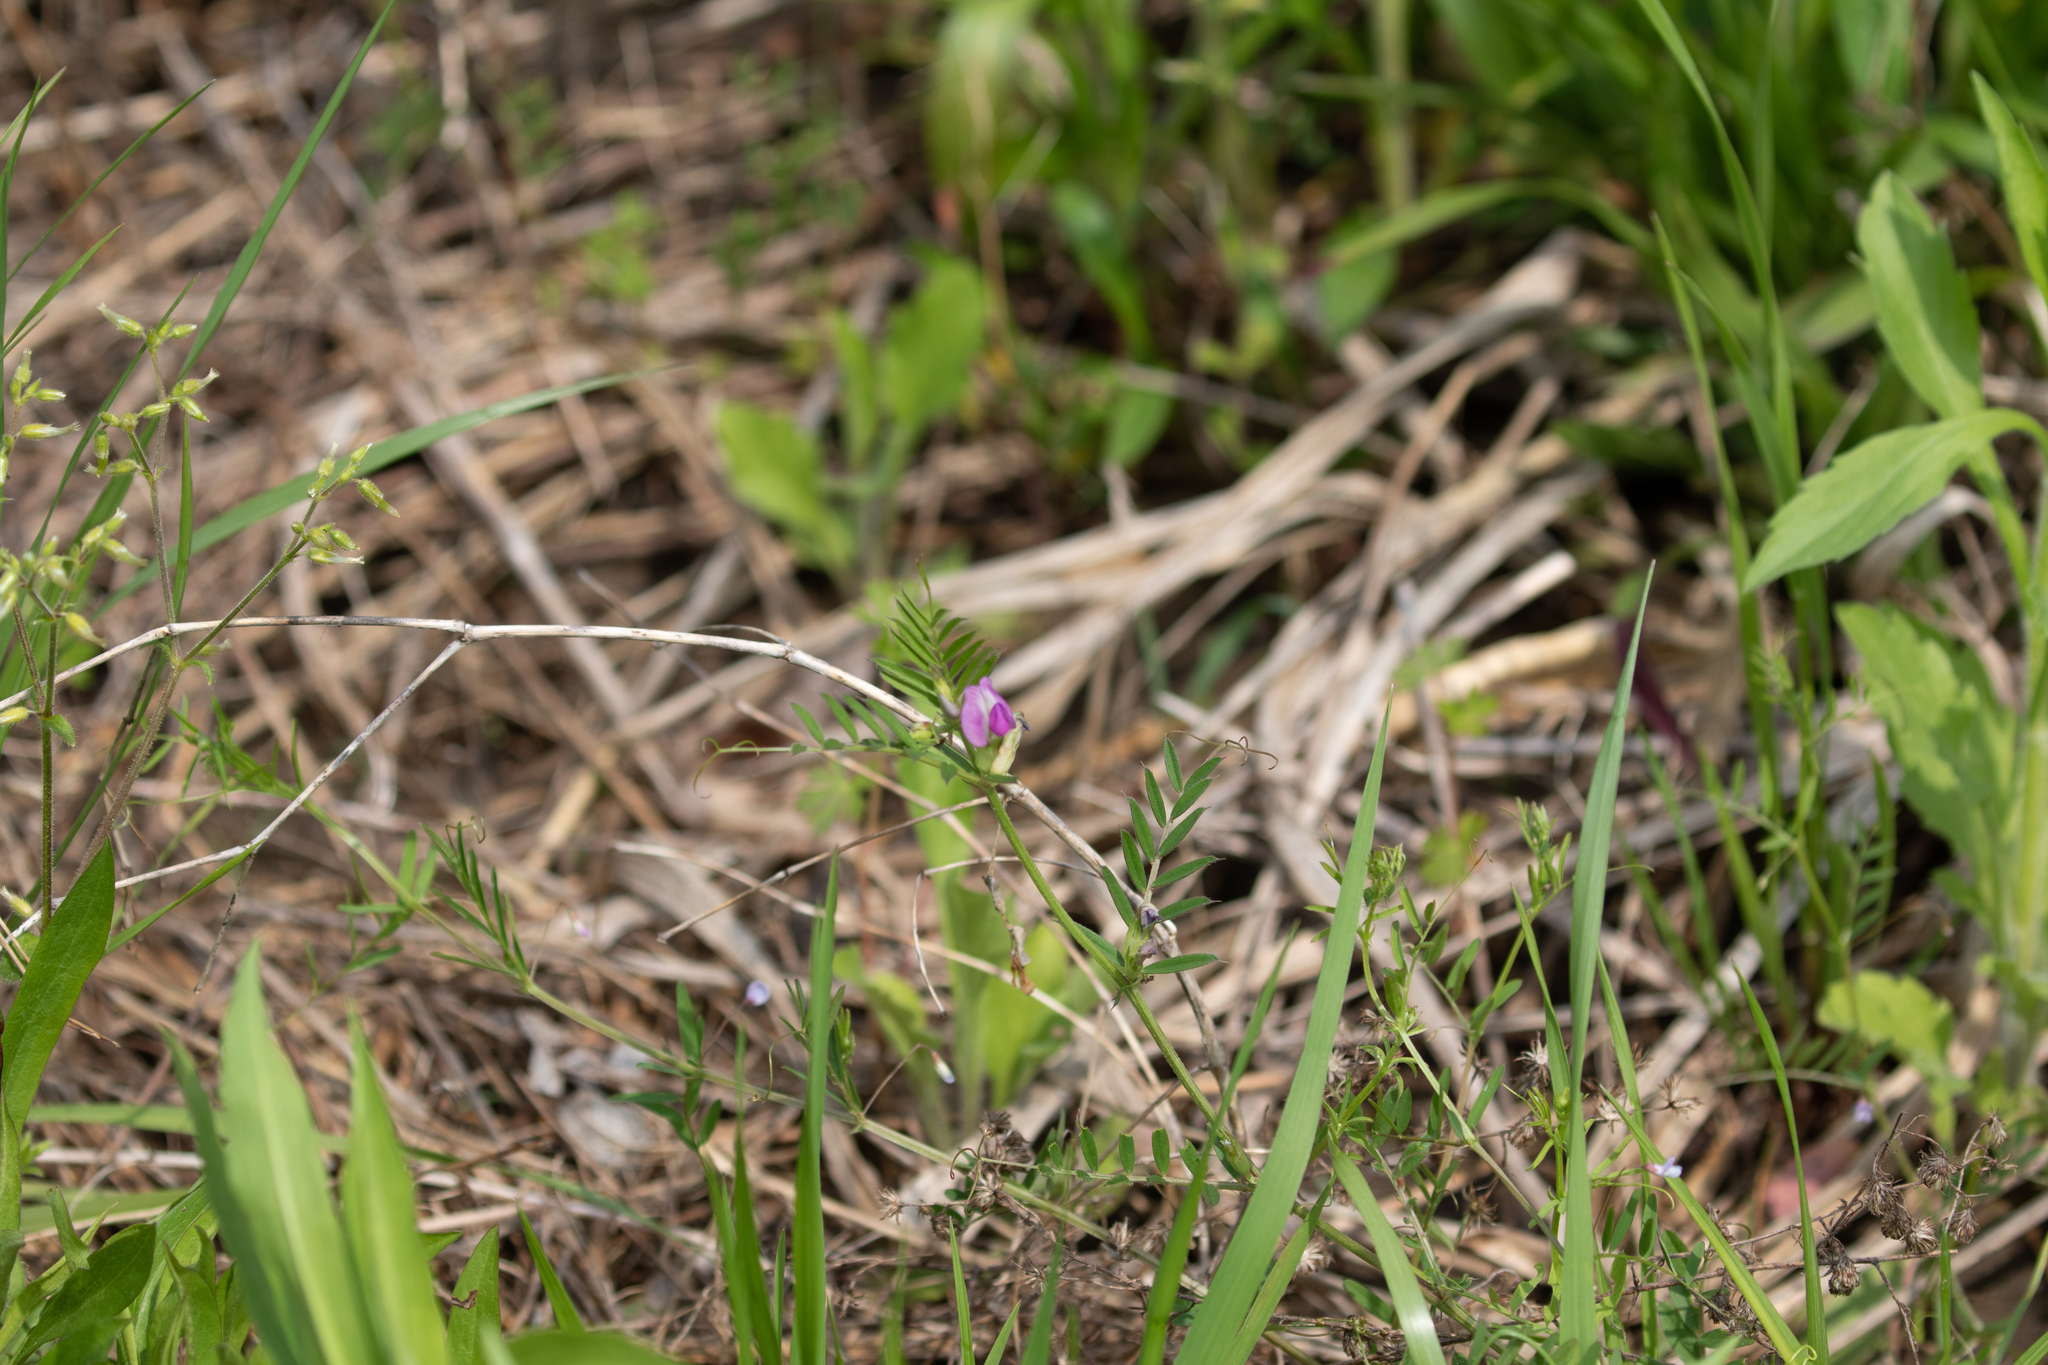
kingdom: Plantae
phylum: Tracheophyta
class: Magnoliopsida
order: Fabales
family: Fabaceae
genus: Vicia
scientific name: Vicia sativa
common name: Garden vetch
